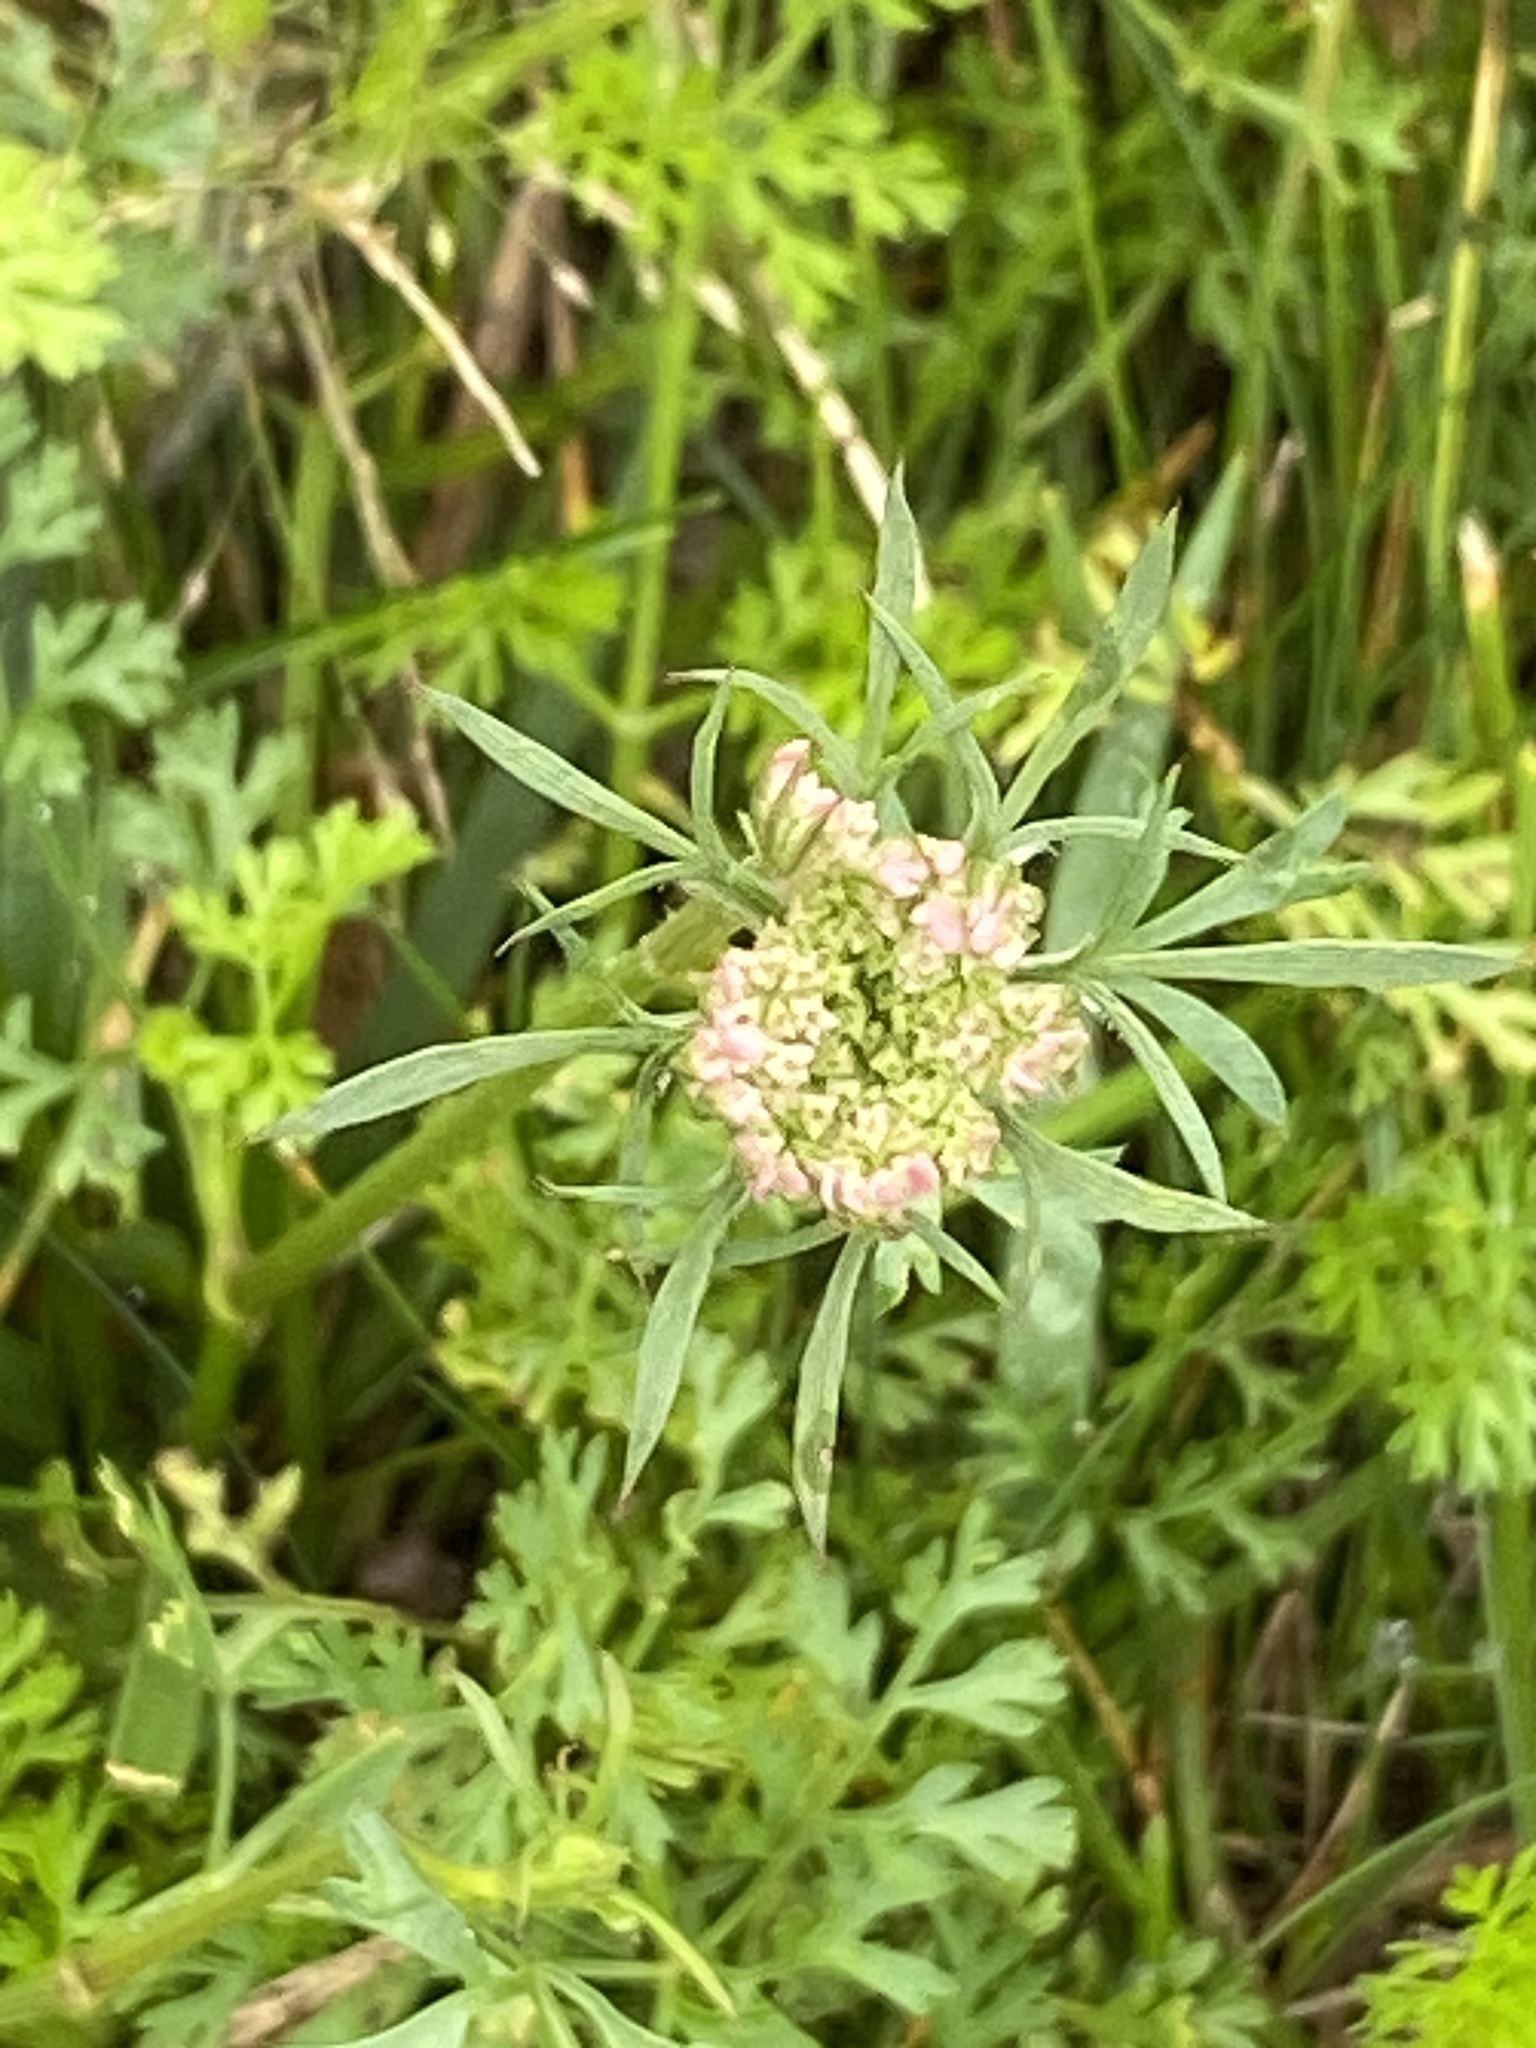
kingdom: Plantae
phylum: Tracheophyta
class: Magnoliopsida
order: Apiales
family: Apiaceae
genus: Daucus
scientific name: Daucus carota
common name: Wild carrot
